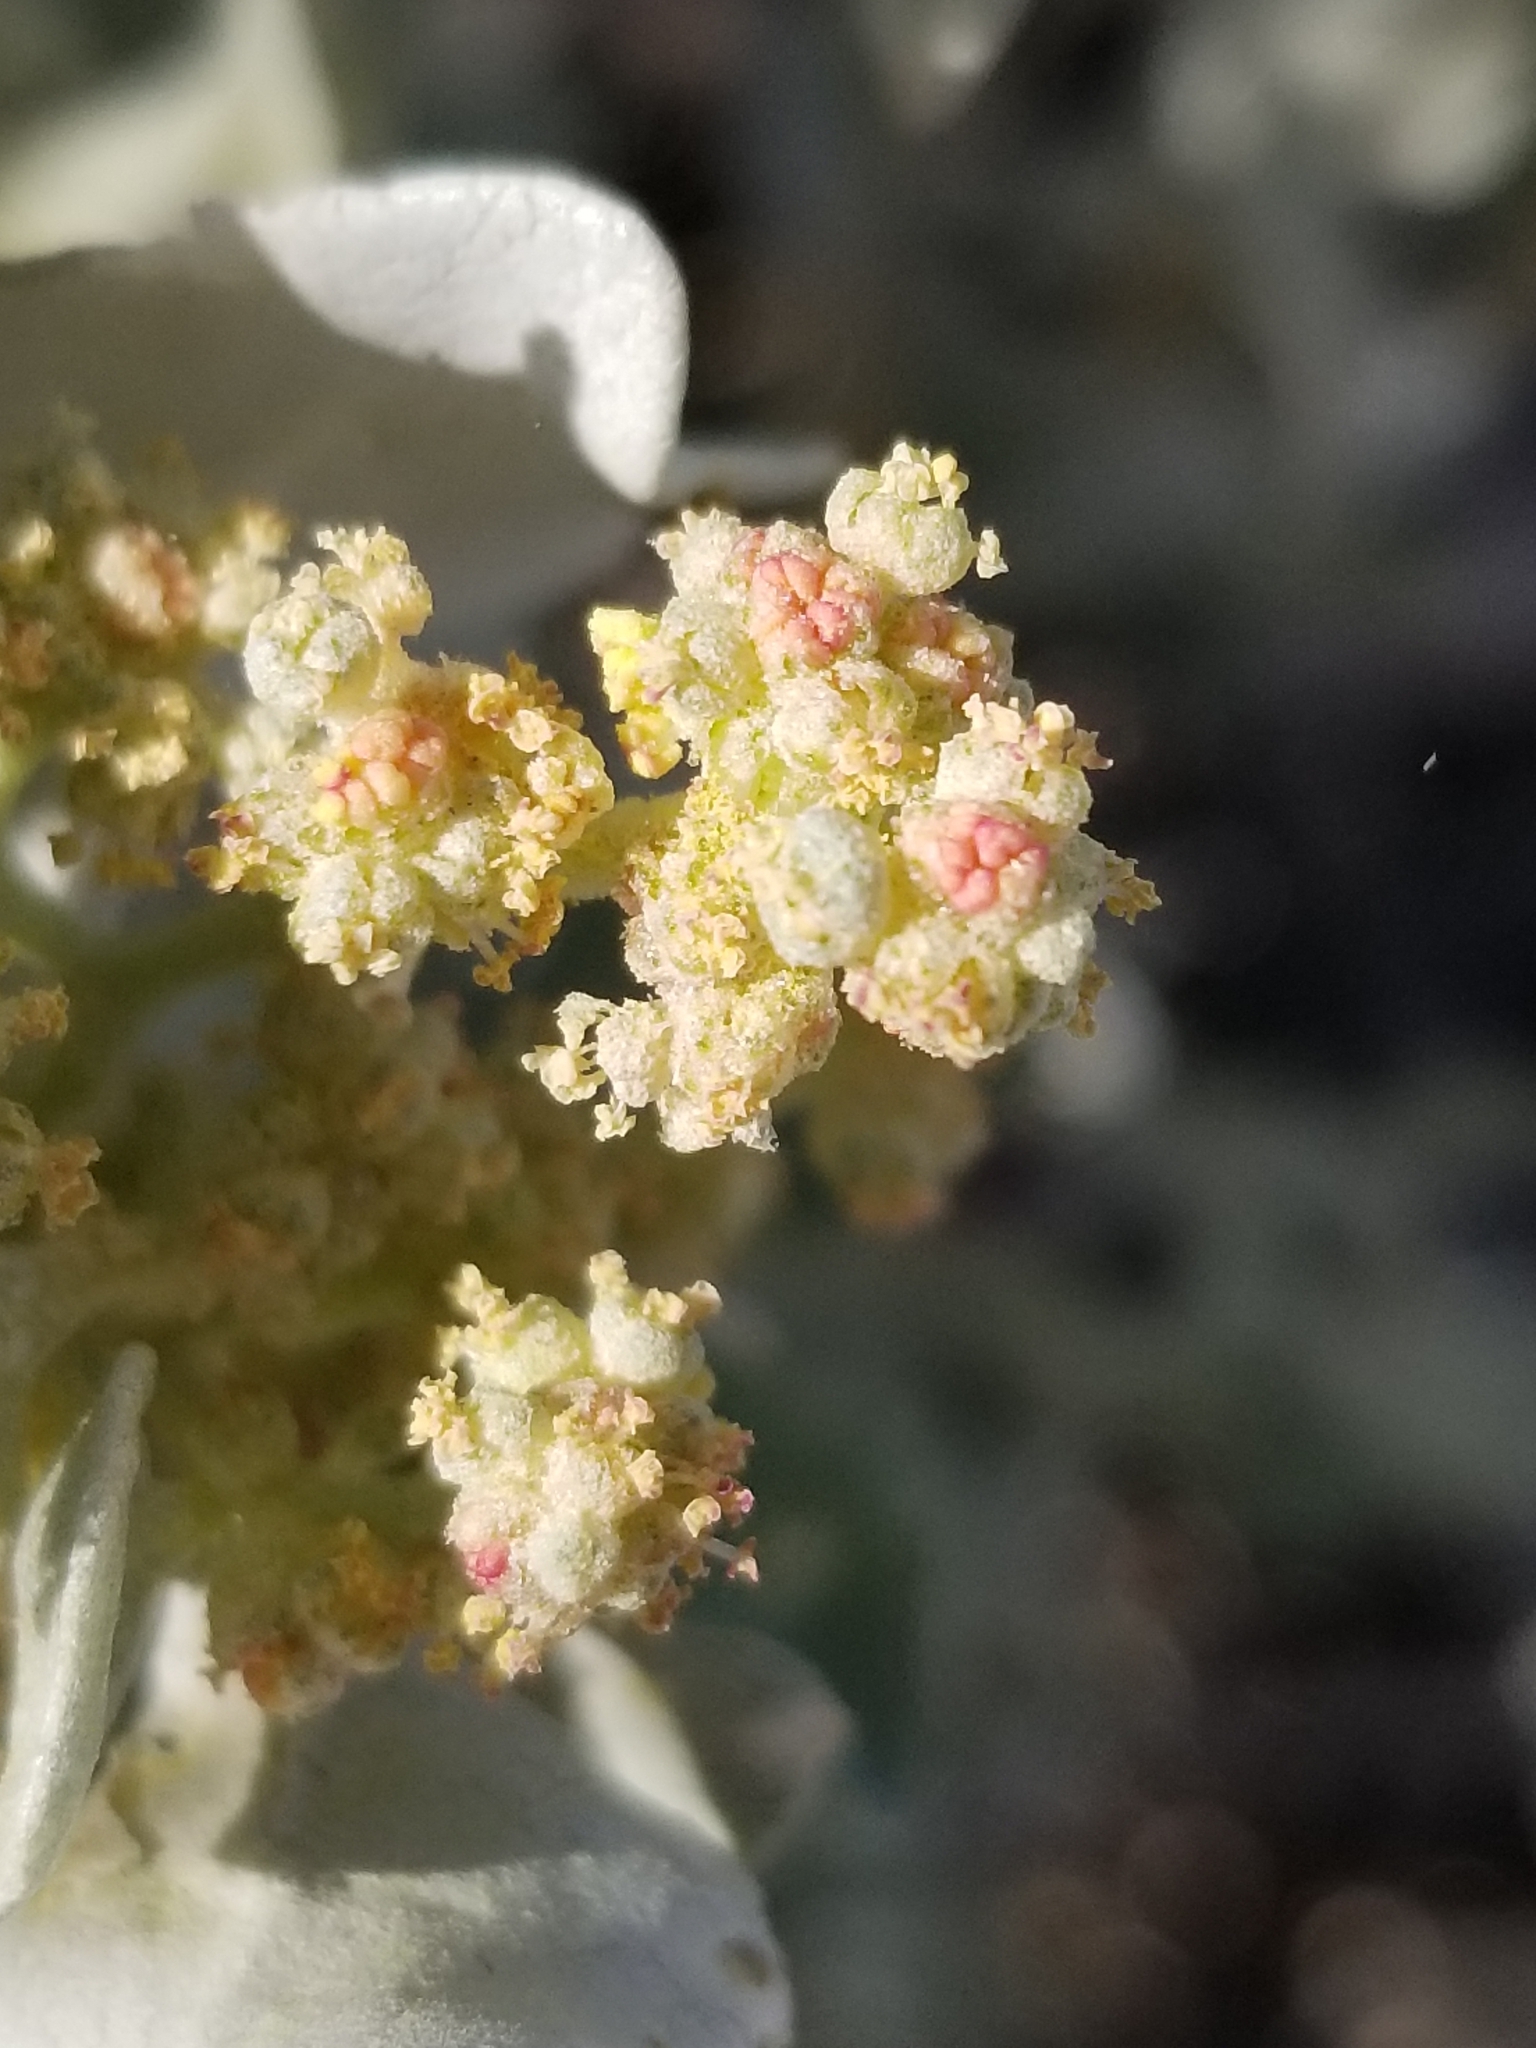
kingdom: Plantae
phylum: Tracheophyta
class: Magnoliopsida
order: Caryophyllales
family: Amaranthaceae
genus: Atriplex
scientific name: Atriplex hymenelytra
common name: Desert-holly
